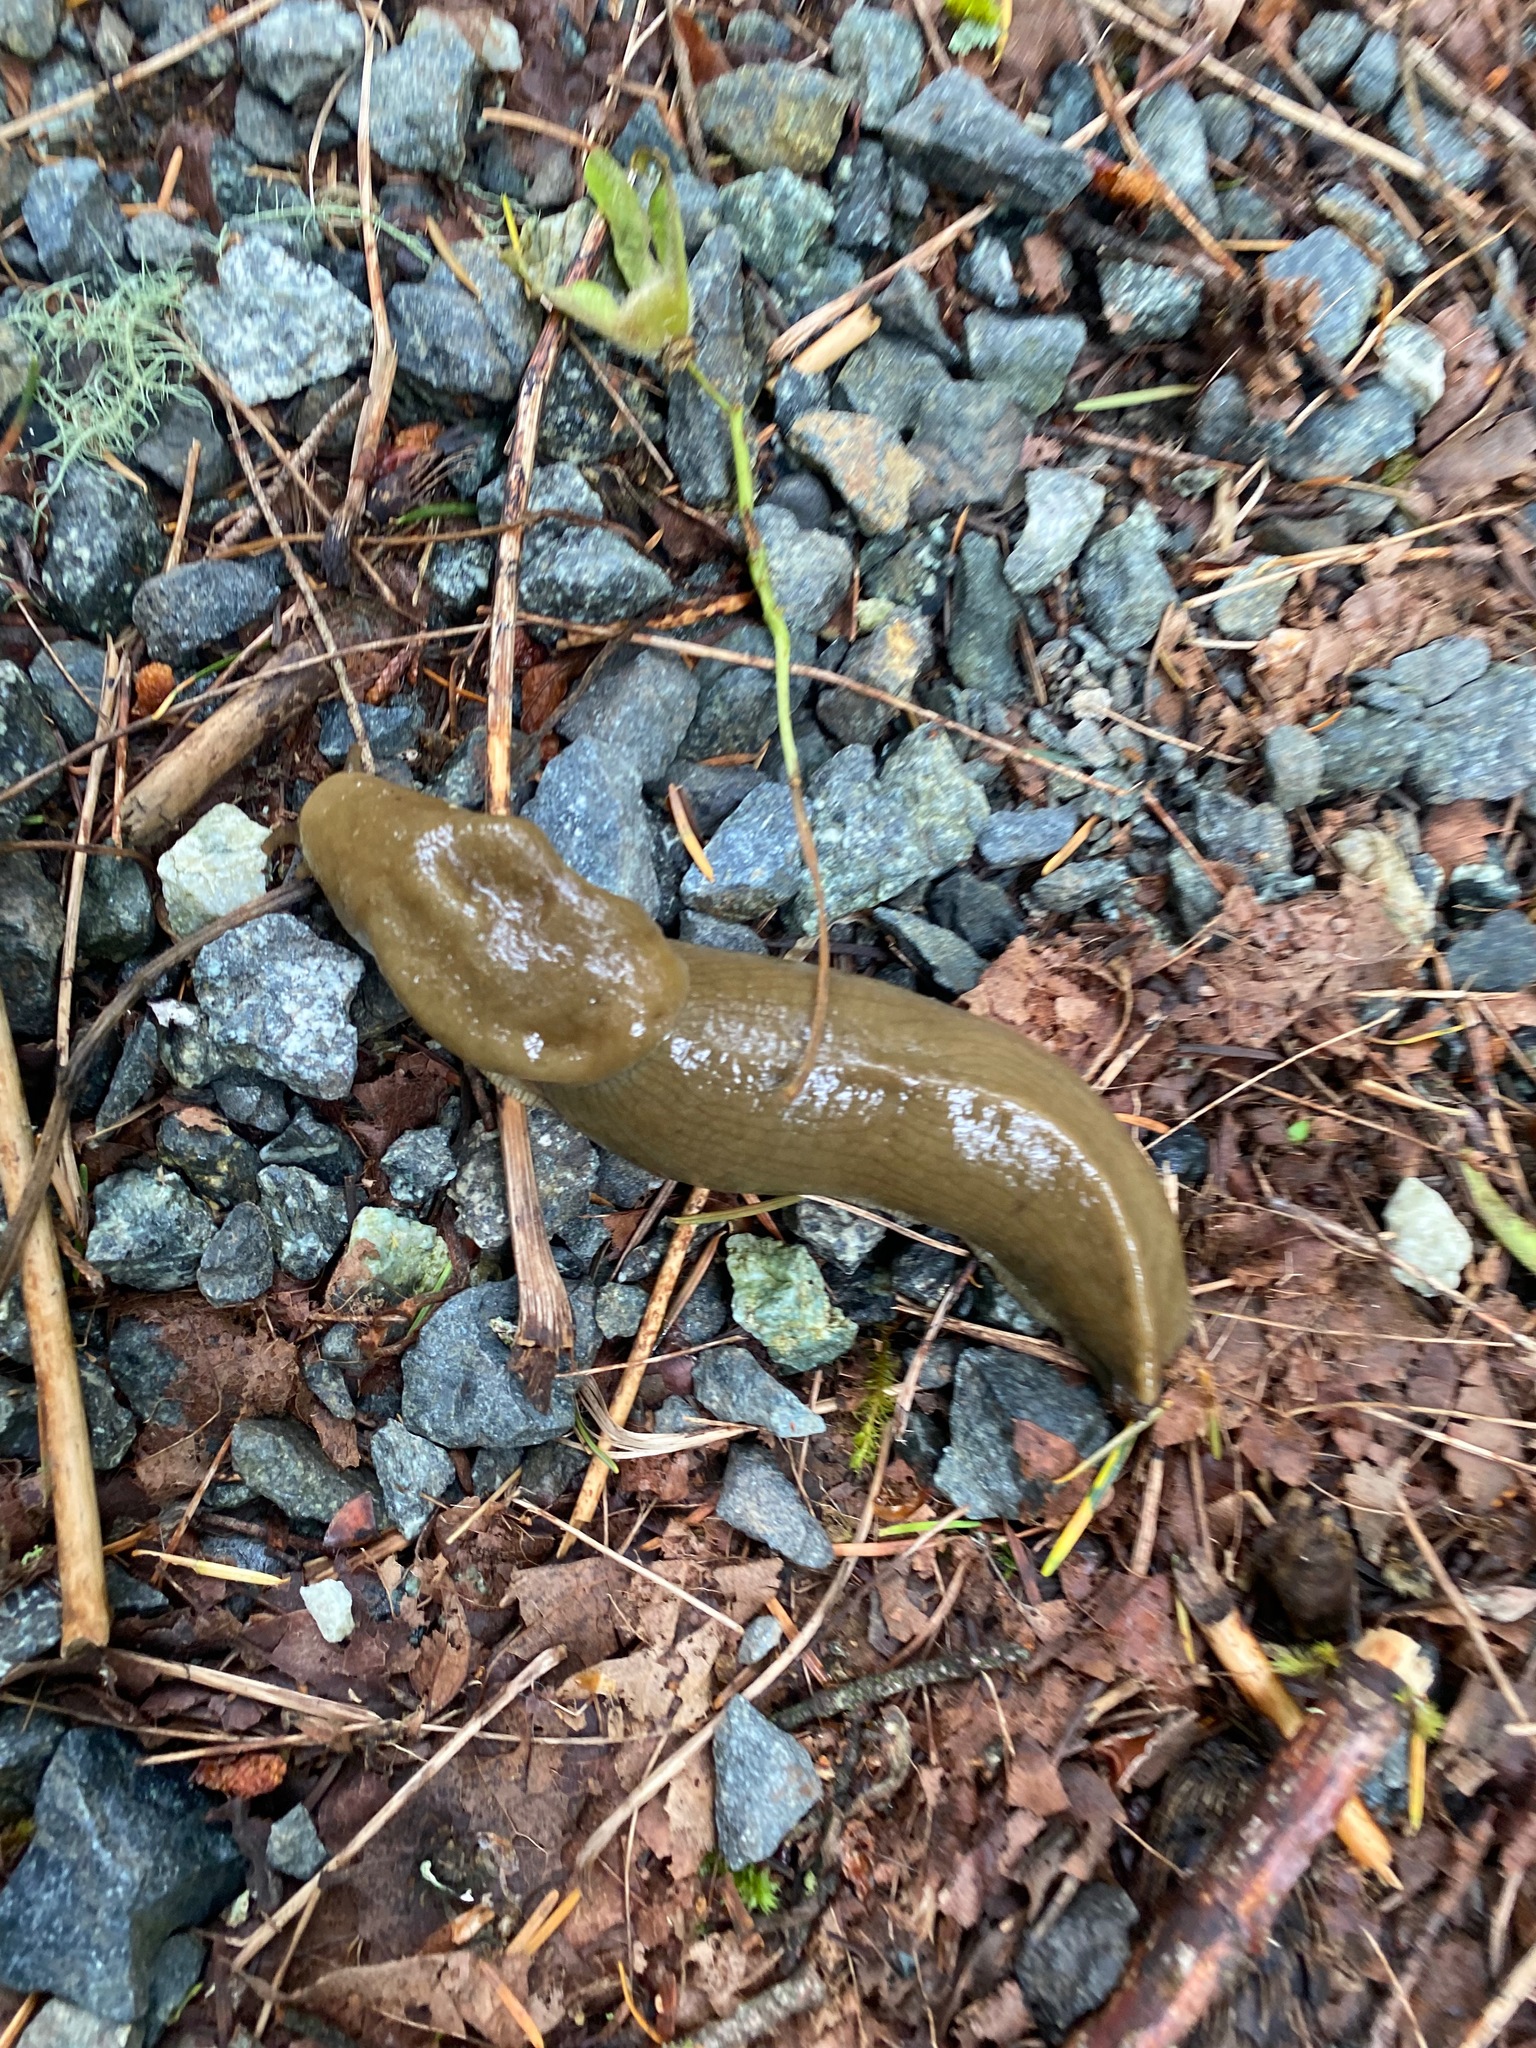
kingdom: Animalia
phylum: Mollusca
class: Gastropoda
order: Stylommatophora
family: Ariolimacidae
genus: Ariolimax
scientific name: Ariolimax columbianus
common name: Pacific banana slug
